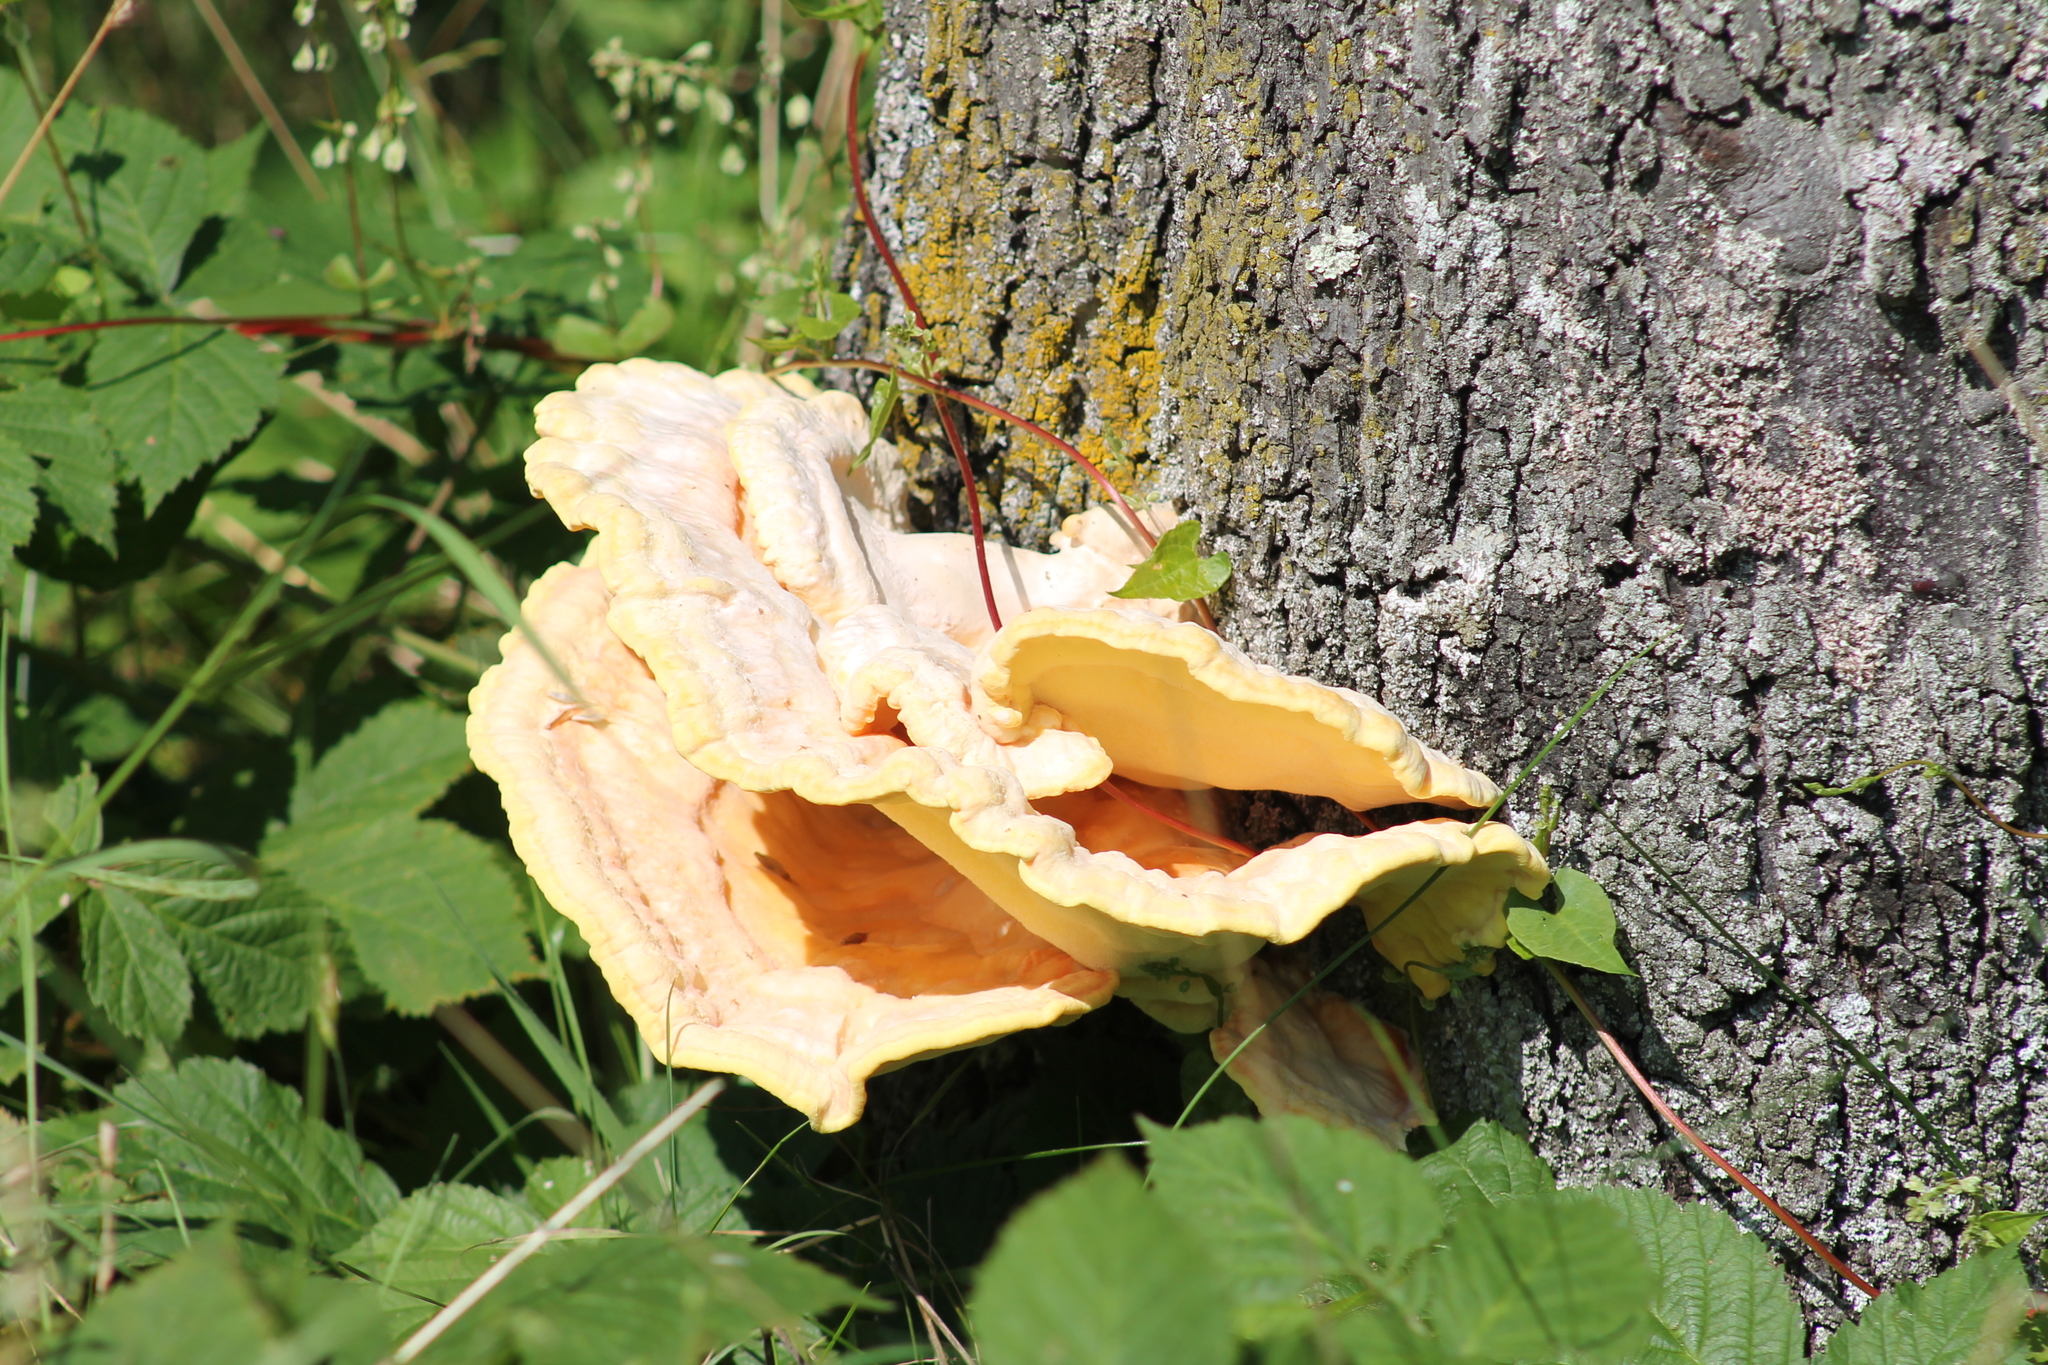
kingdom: Fungi
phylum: Basidiomycota
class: Agaricomycetes
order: Polyporales
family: Laetiporaceae
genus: Laetiporus
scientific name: Laetiporus sulphureus
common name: Chicken of the woods
